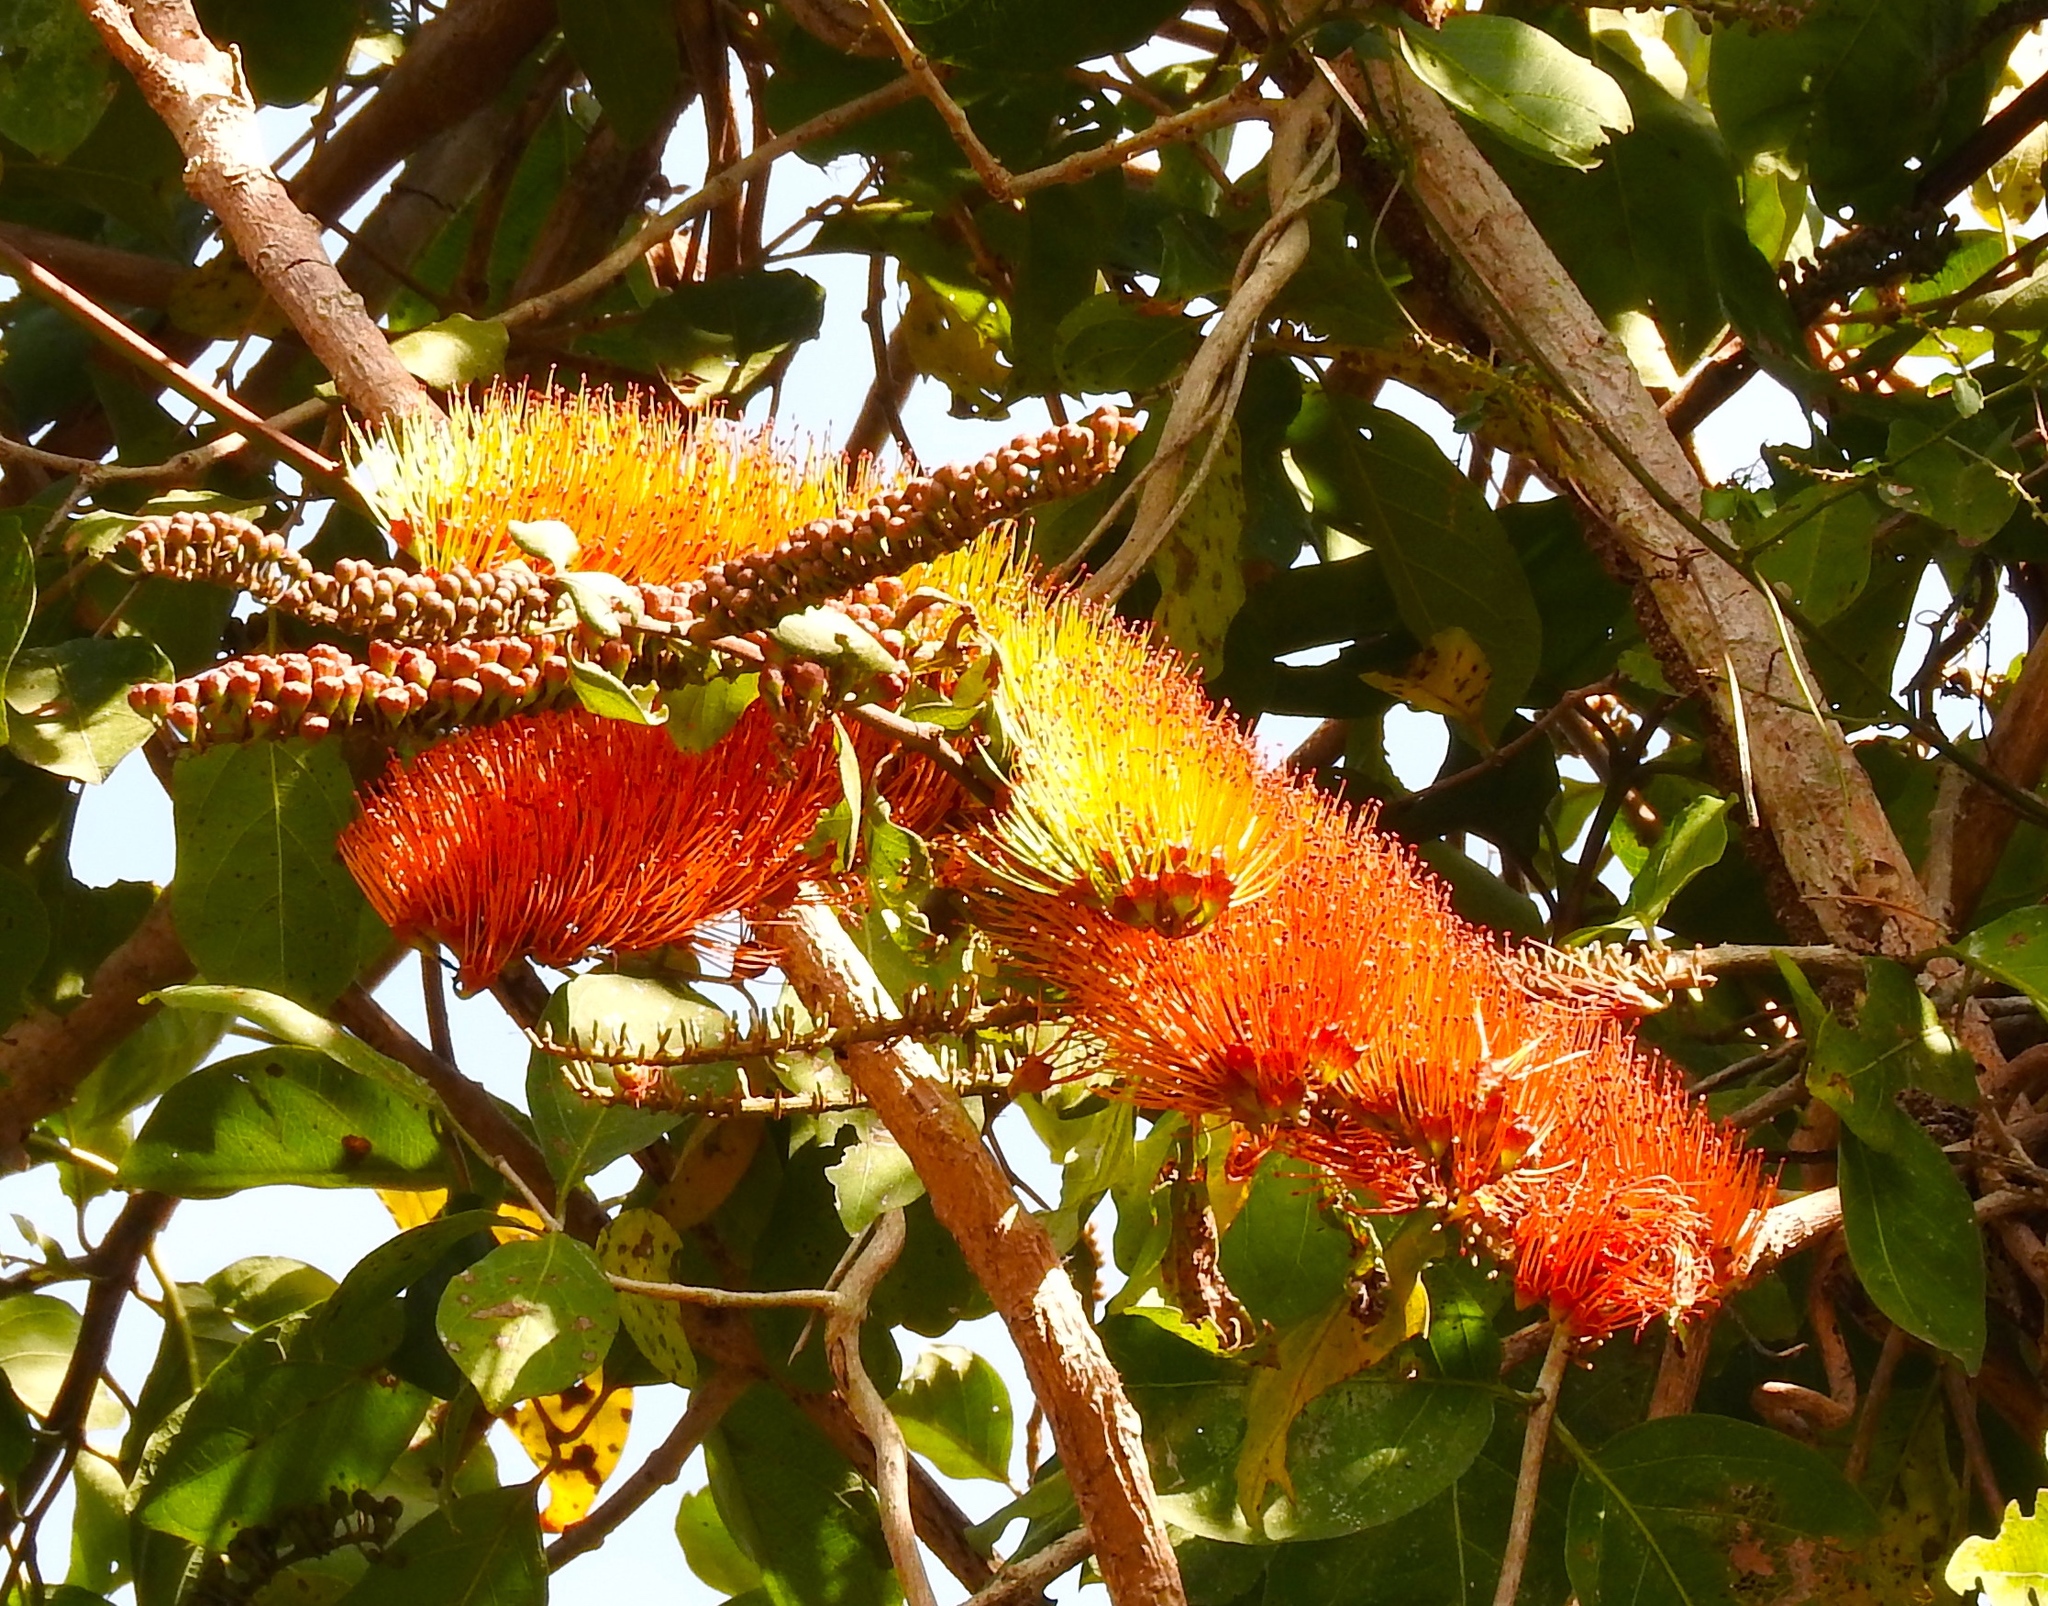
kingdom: Plantae
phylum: Tracheophyta
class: Magnoliopsida
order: Myrtales
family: Combretaceae
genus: Combretum
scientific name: Combretum farinosum
